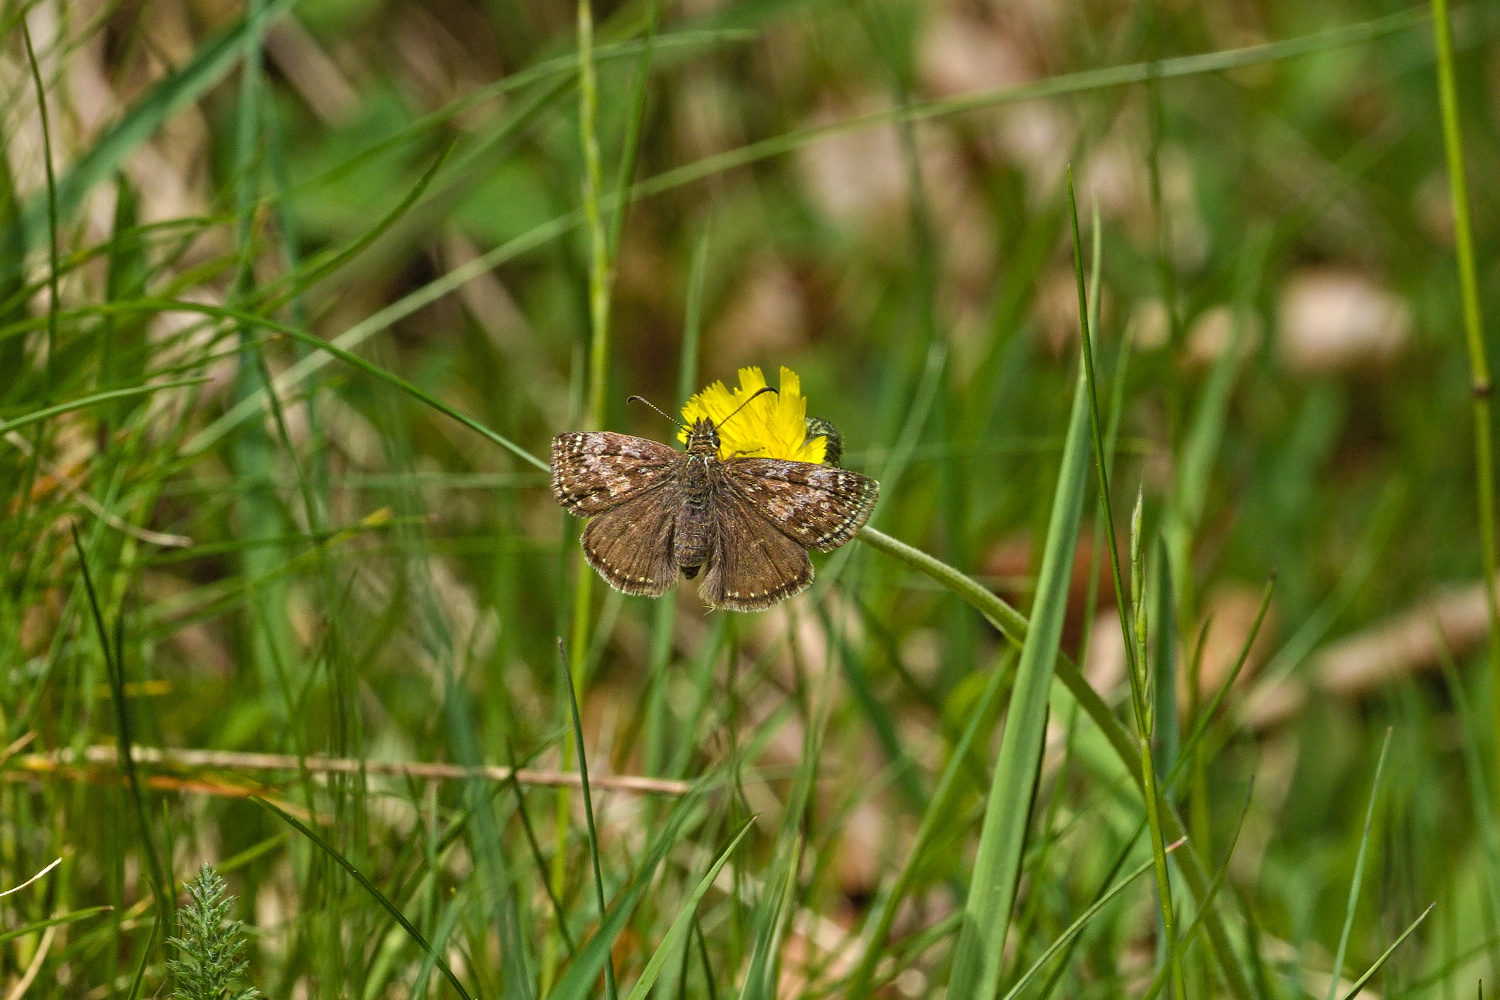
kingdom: Animalia
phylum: Arthropoda
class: Insecta
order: Lepidoptera
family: Hesperiidae
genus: Erynnis
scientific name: Erynnis tages
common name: Dingy skipper
